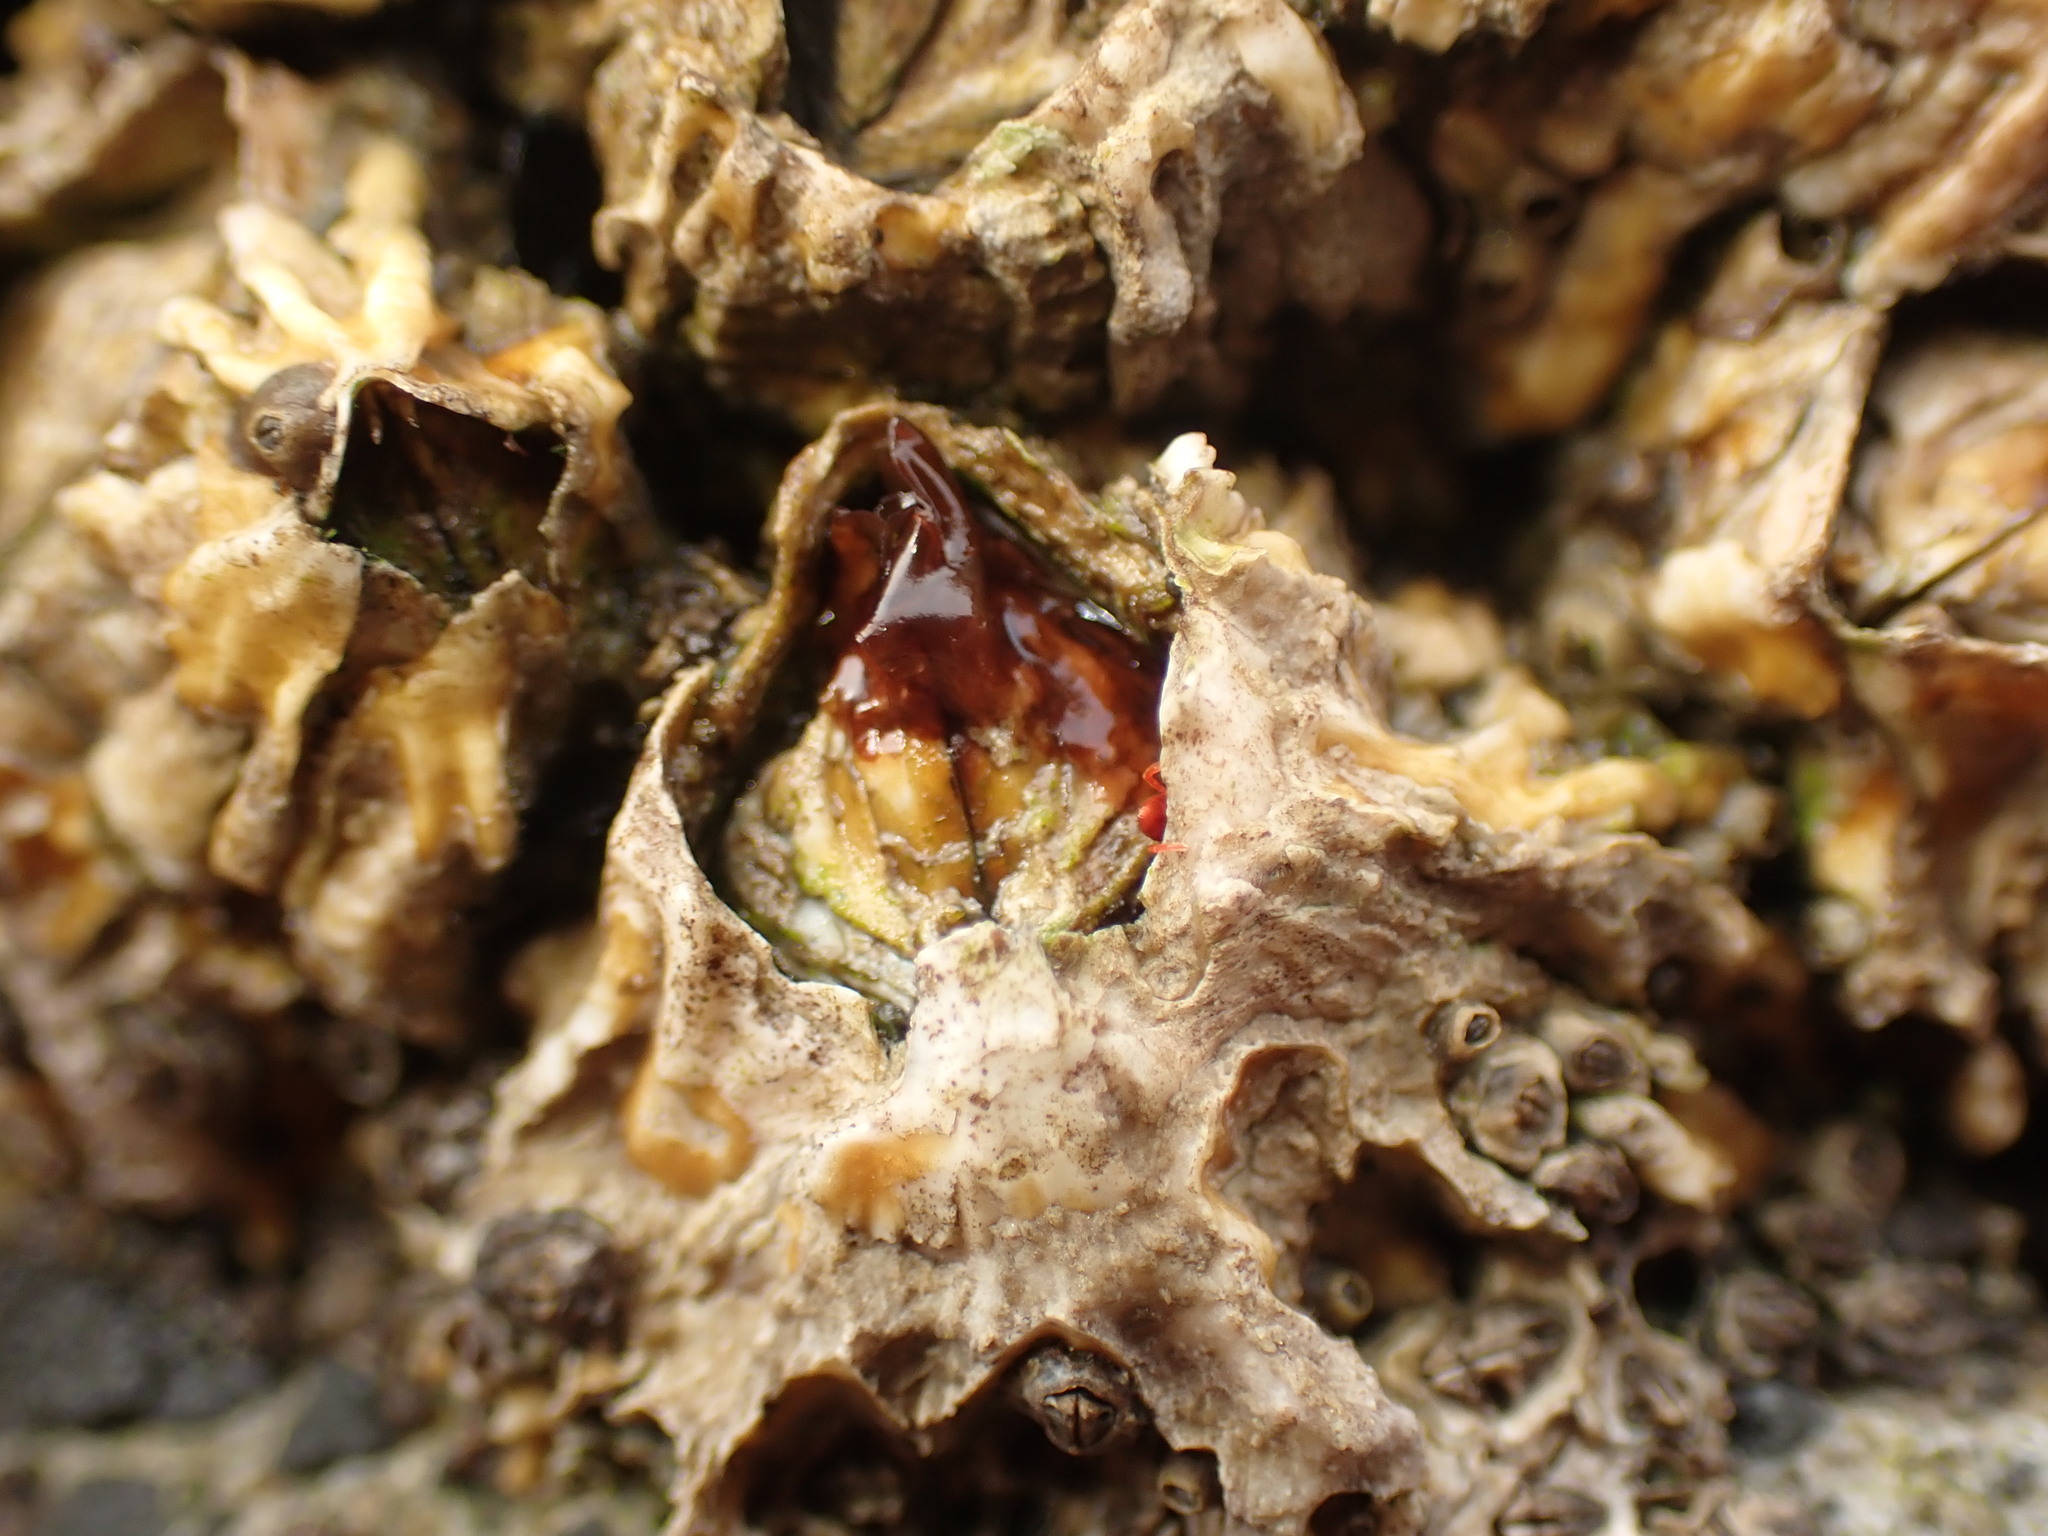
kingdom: Animalia
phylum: Arthropoda
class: Maxillopoda
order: Sessilia
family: Tetraclitidae
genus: Epopella
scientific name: Epopella plicata
